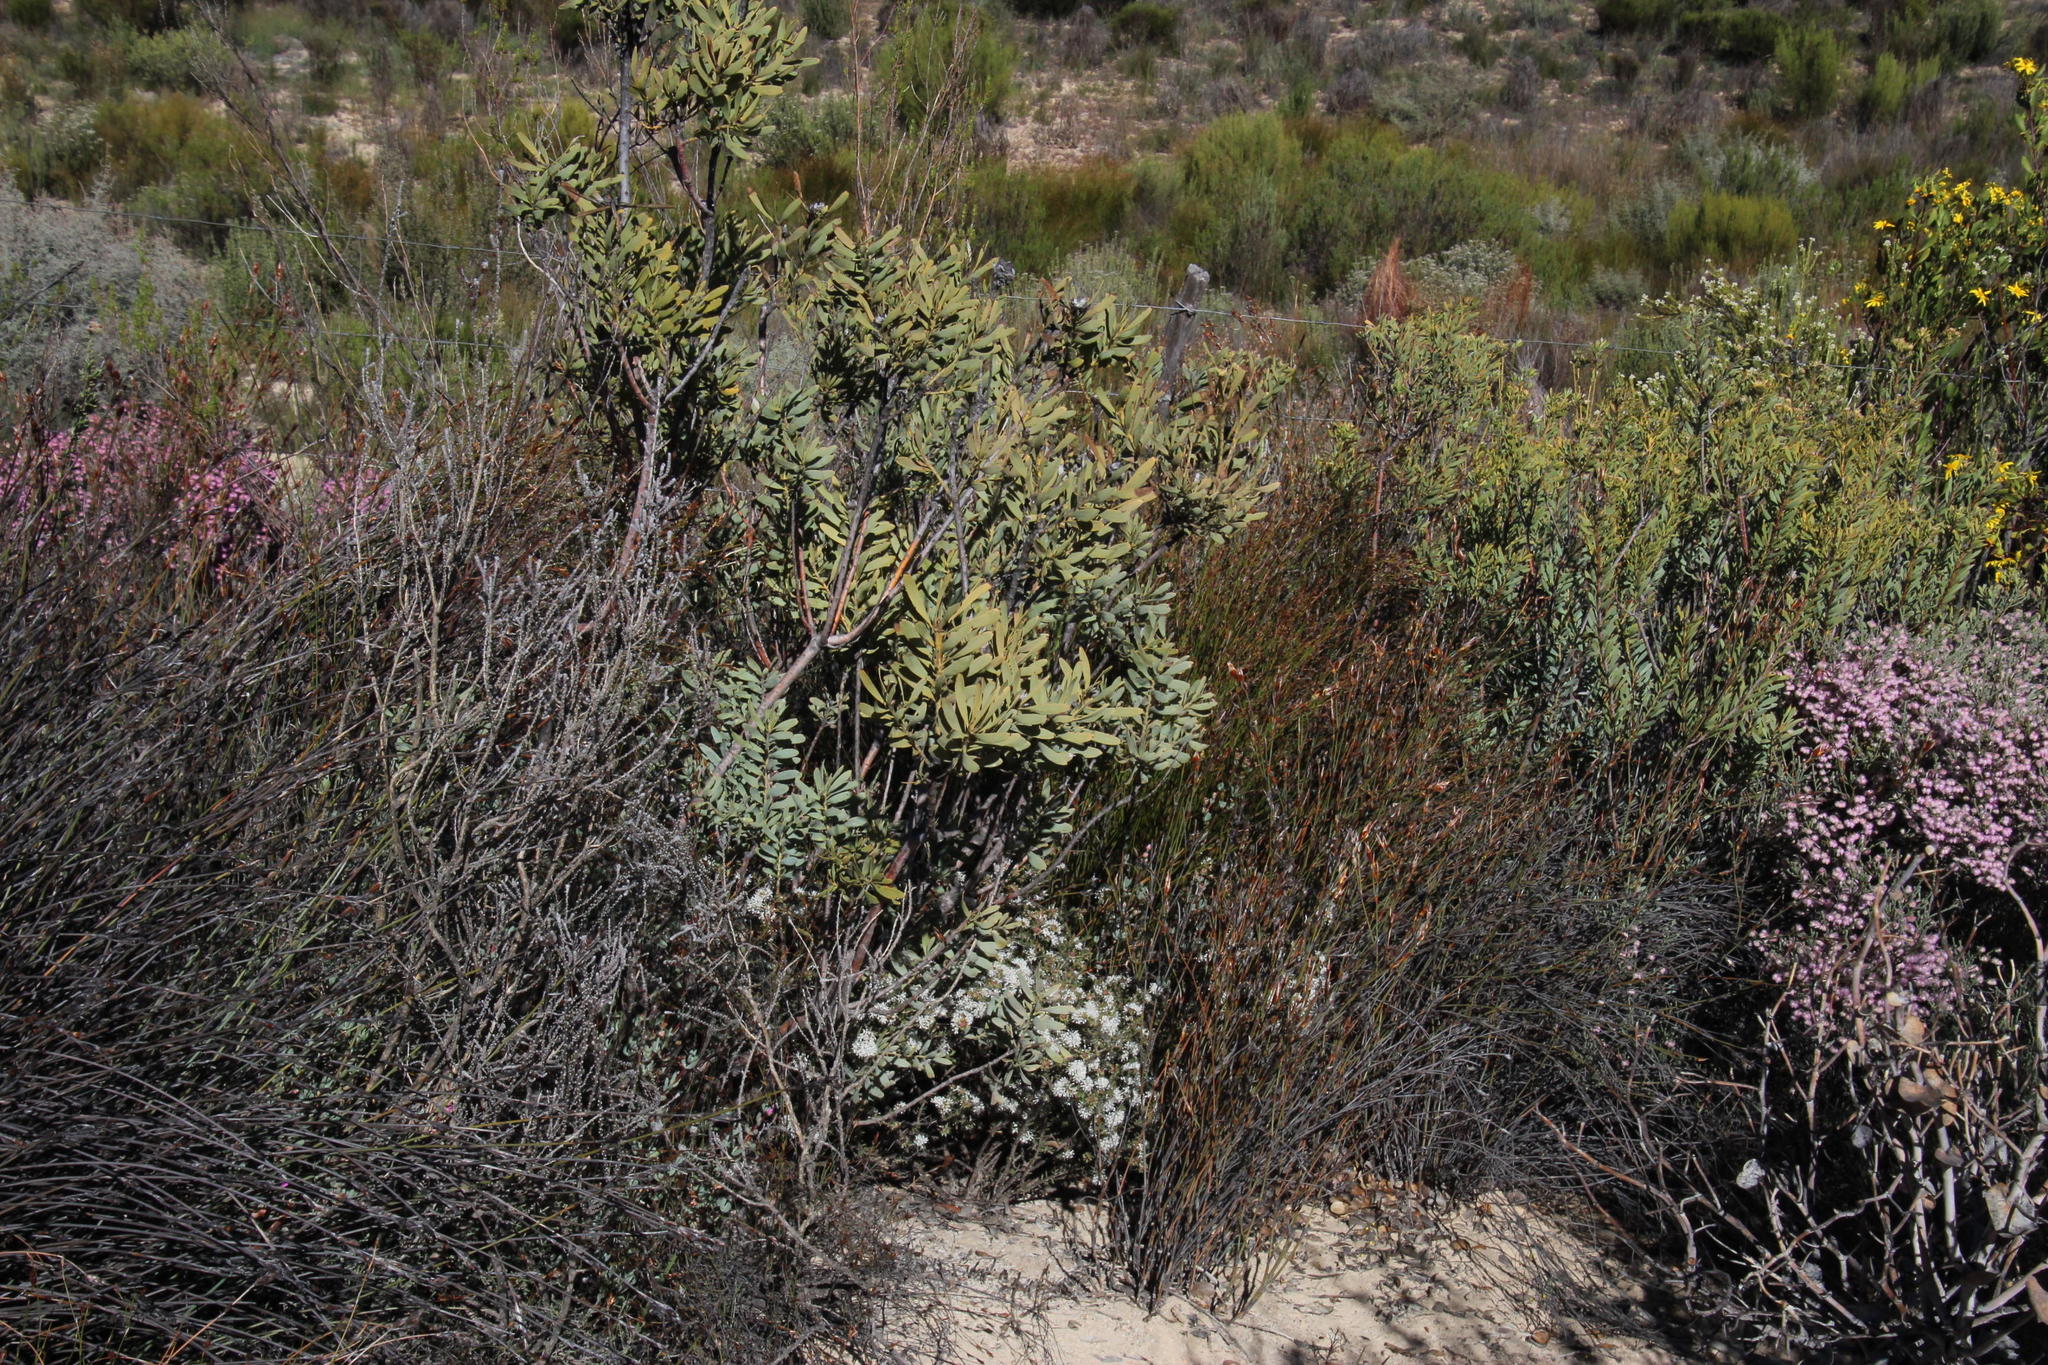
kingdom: Plantae
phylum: Tracheophyta
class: Magnoliopsida
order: Proteales
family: Proteaceae
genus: Protea
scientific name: Protea laurifolia
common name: Grey-leaf sugarbsh
